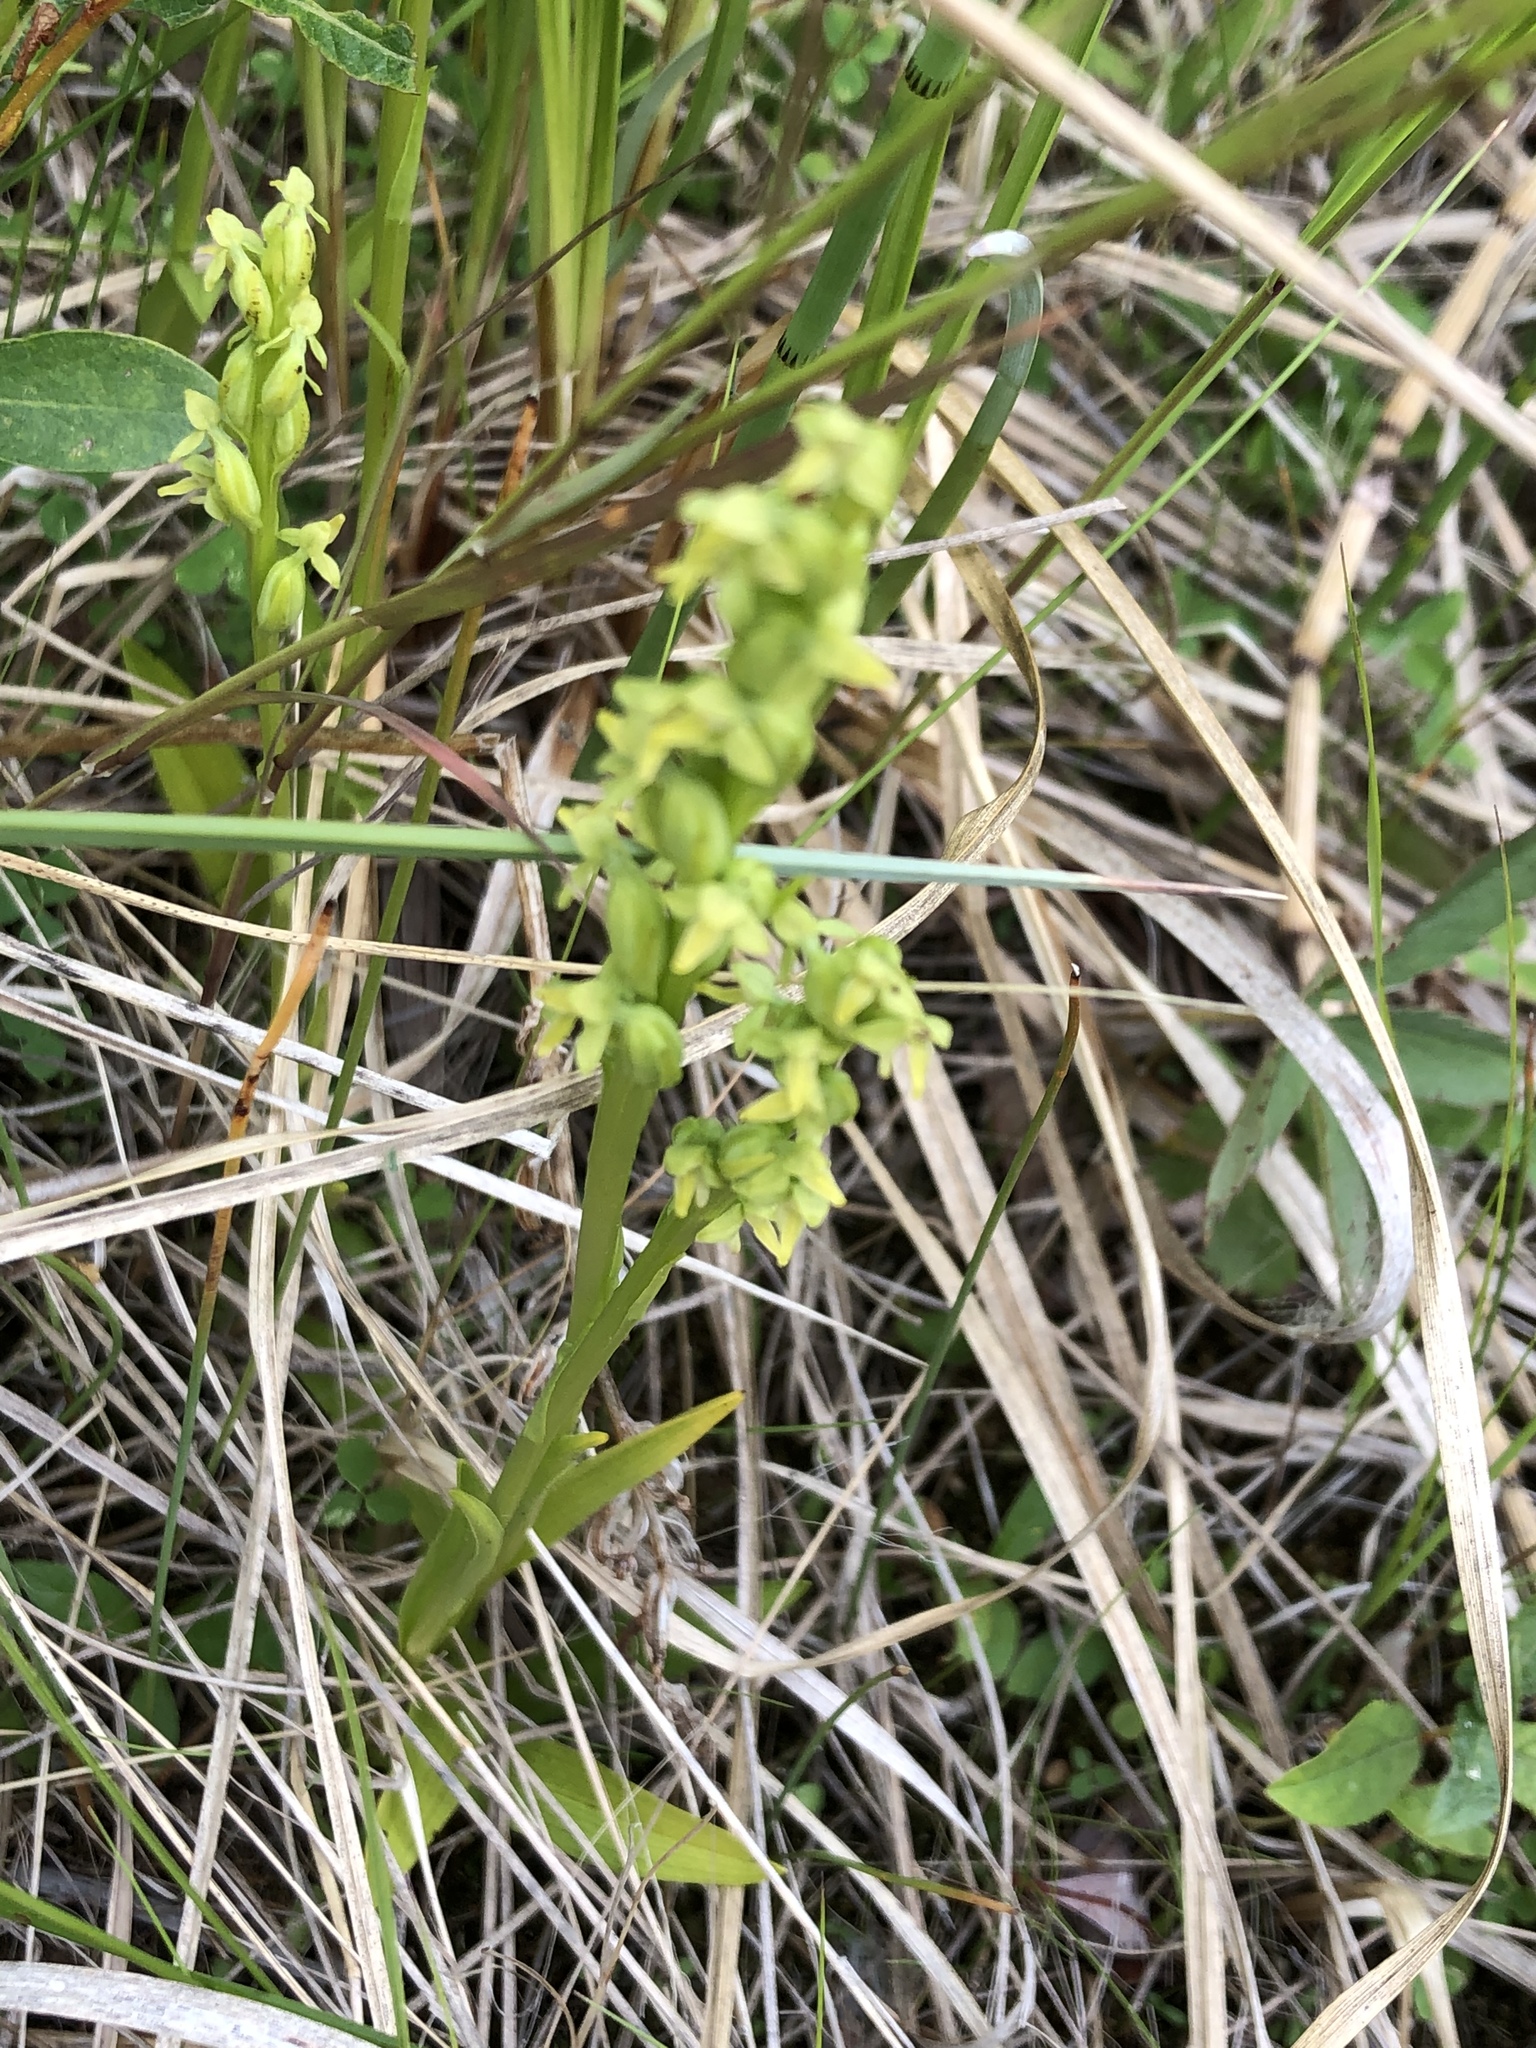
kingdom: Plantae
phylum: Tracheophyta
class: Liliopsida
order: Asparagales
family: Orchidaceae
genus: Platanthera
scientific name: Platanthera aquilonis
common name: Northern green orchid
